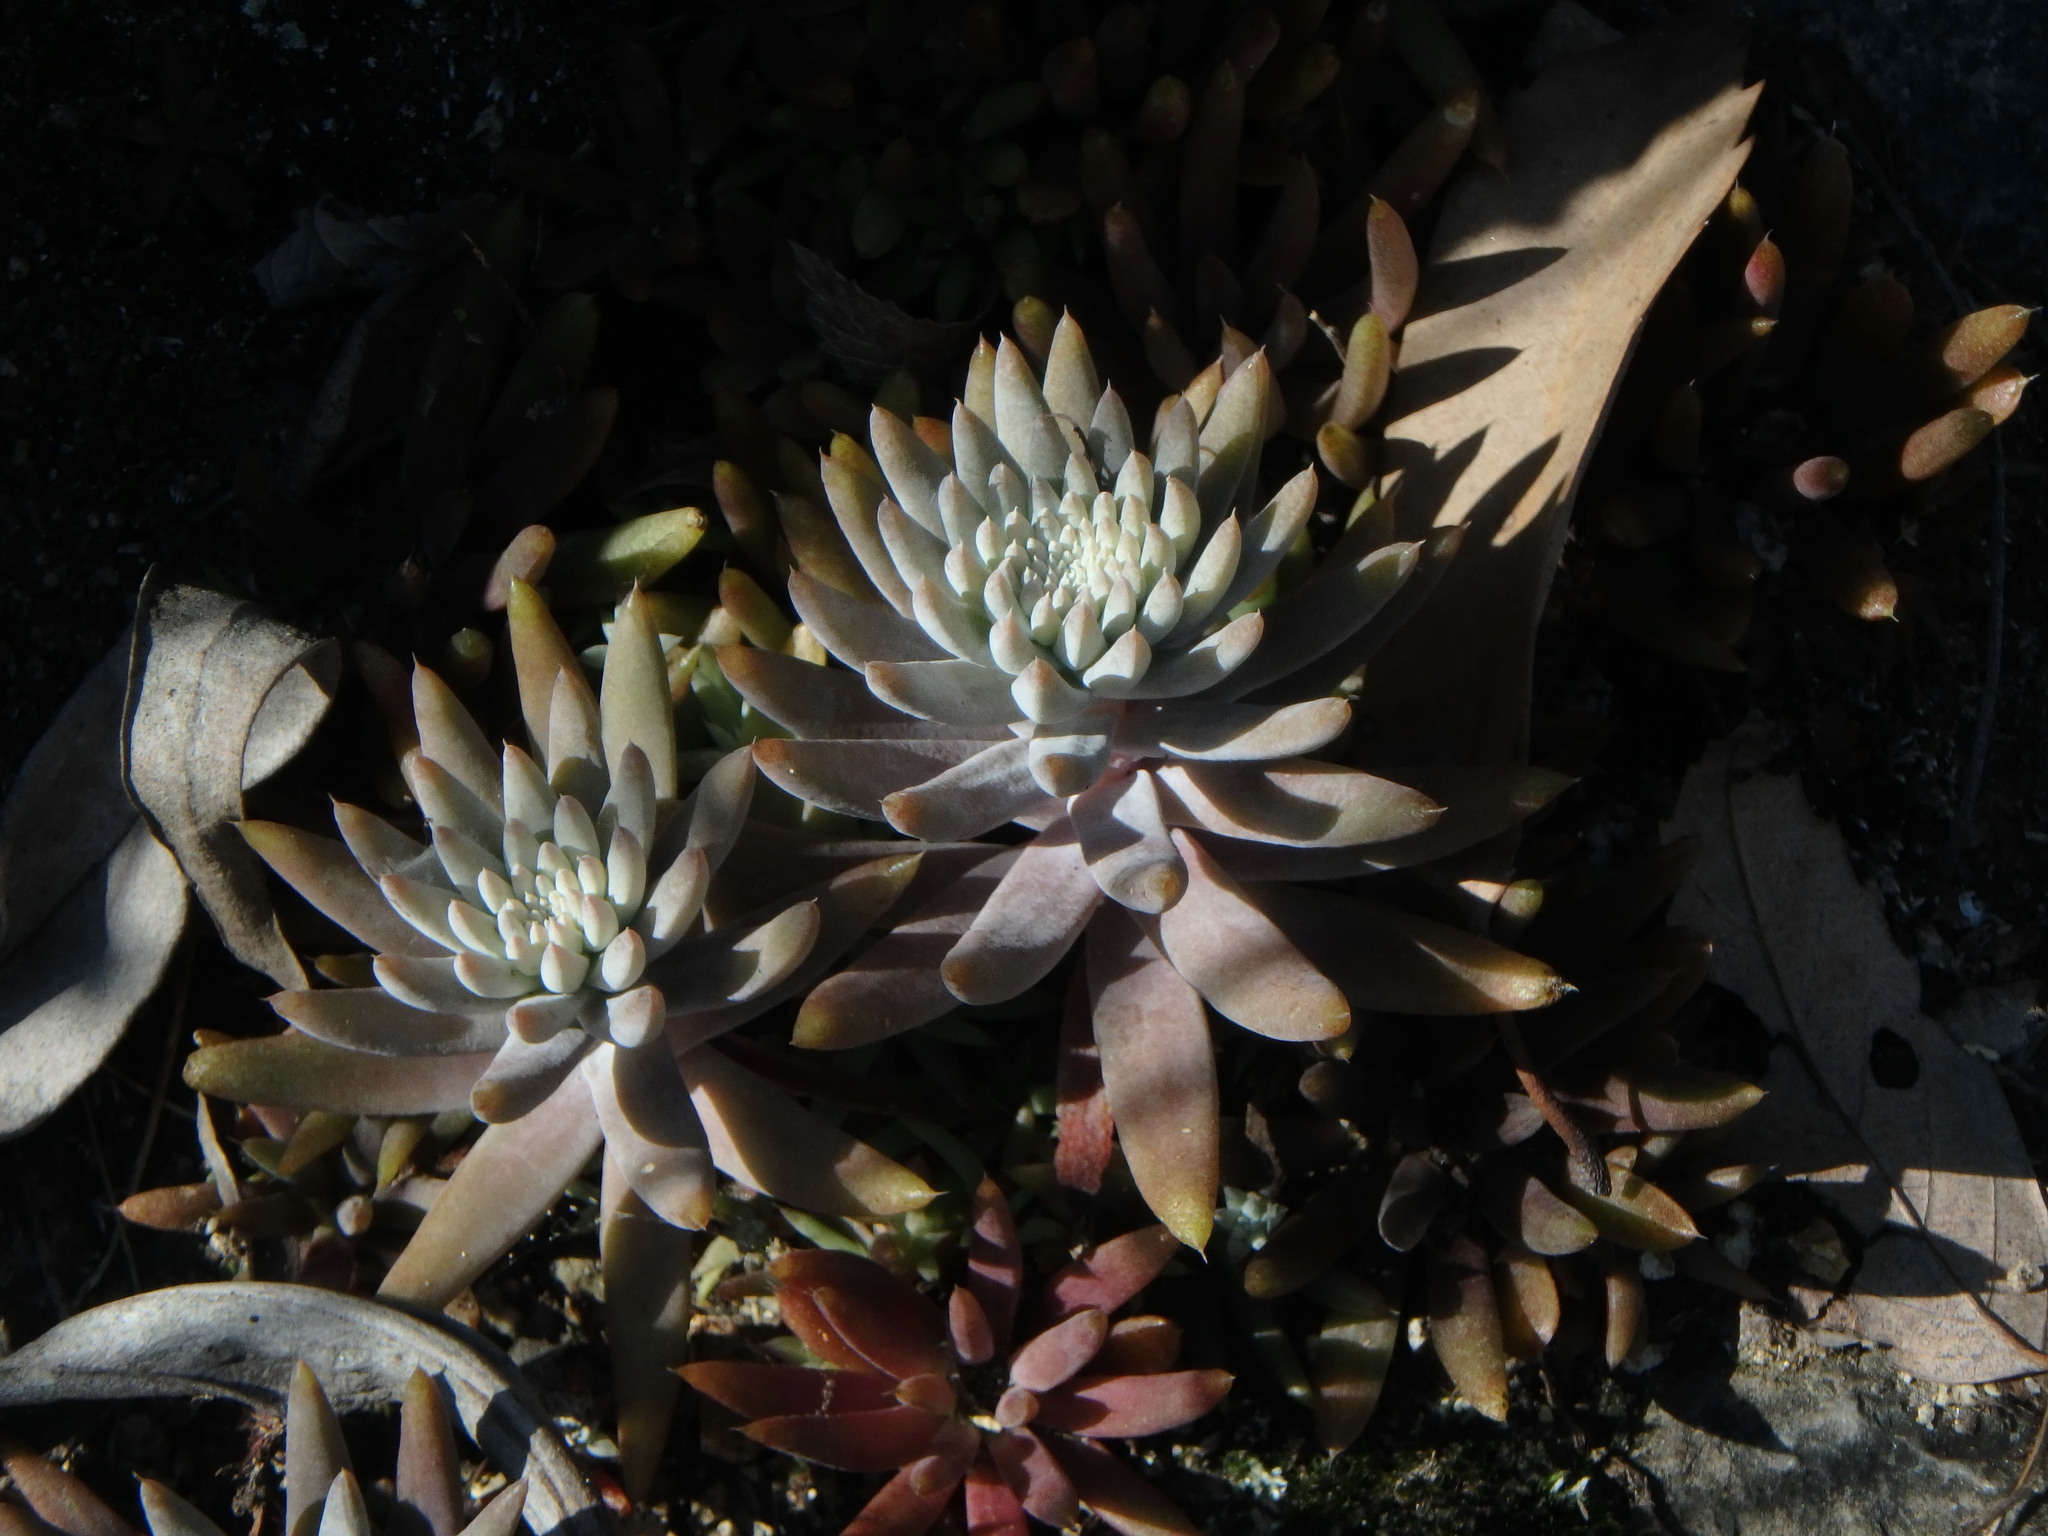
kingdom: Plantae
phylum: Tracheophyta
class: Magnoliopsida
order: Saxifragales
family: Crassulaceae
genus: Orostachys
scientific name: Orostachys japonica
